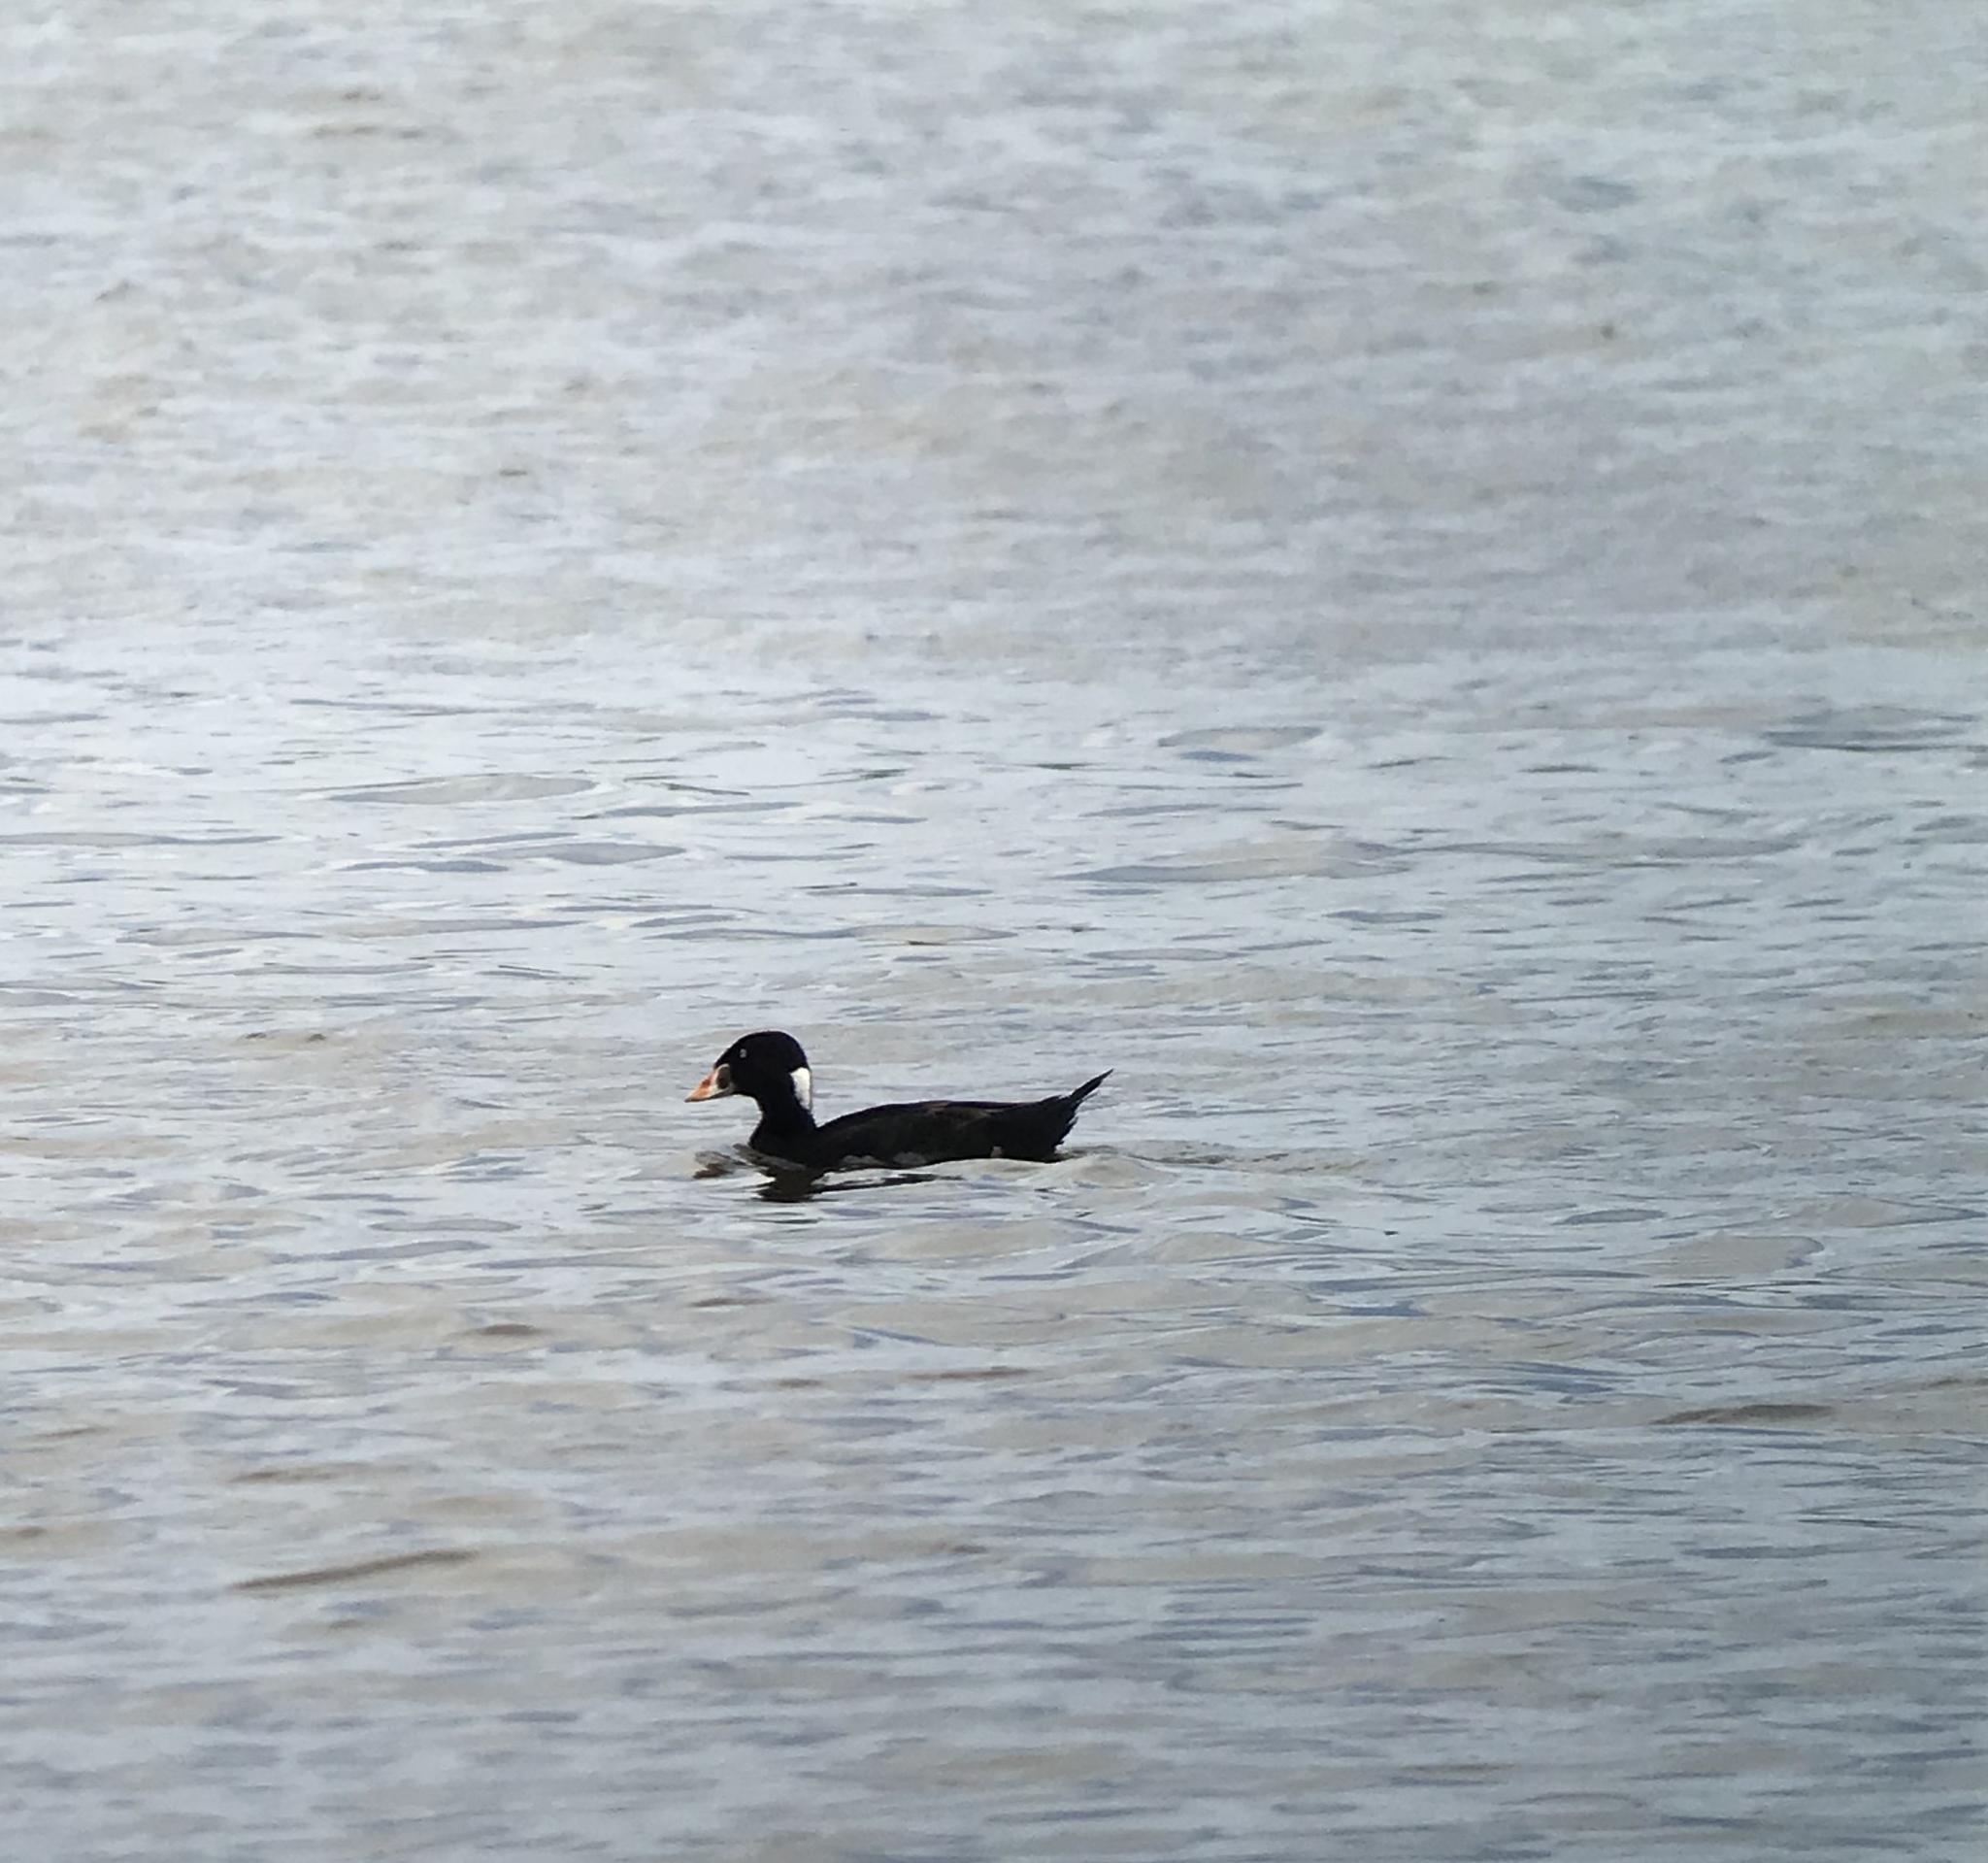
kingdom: Animalia
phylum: Chordata
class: Aves
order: Anseriformes
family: Anatidae
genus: Melanitta
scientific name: Melanitta perspicillata
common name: Surf scoter
